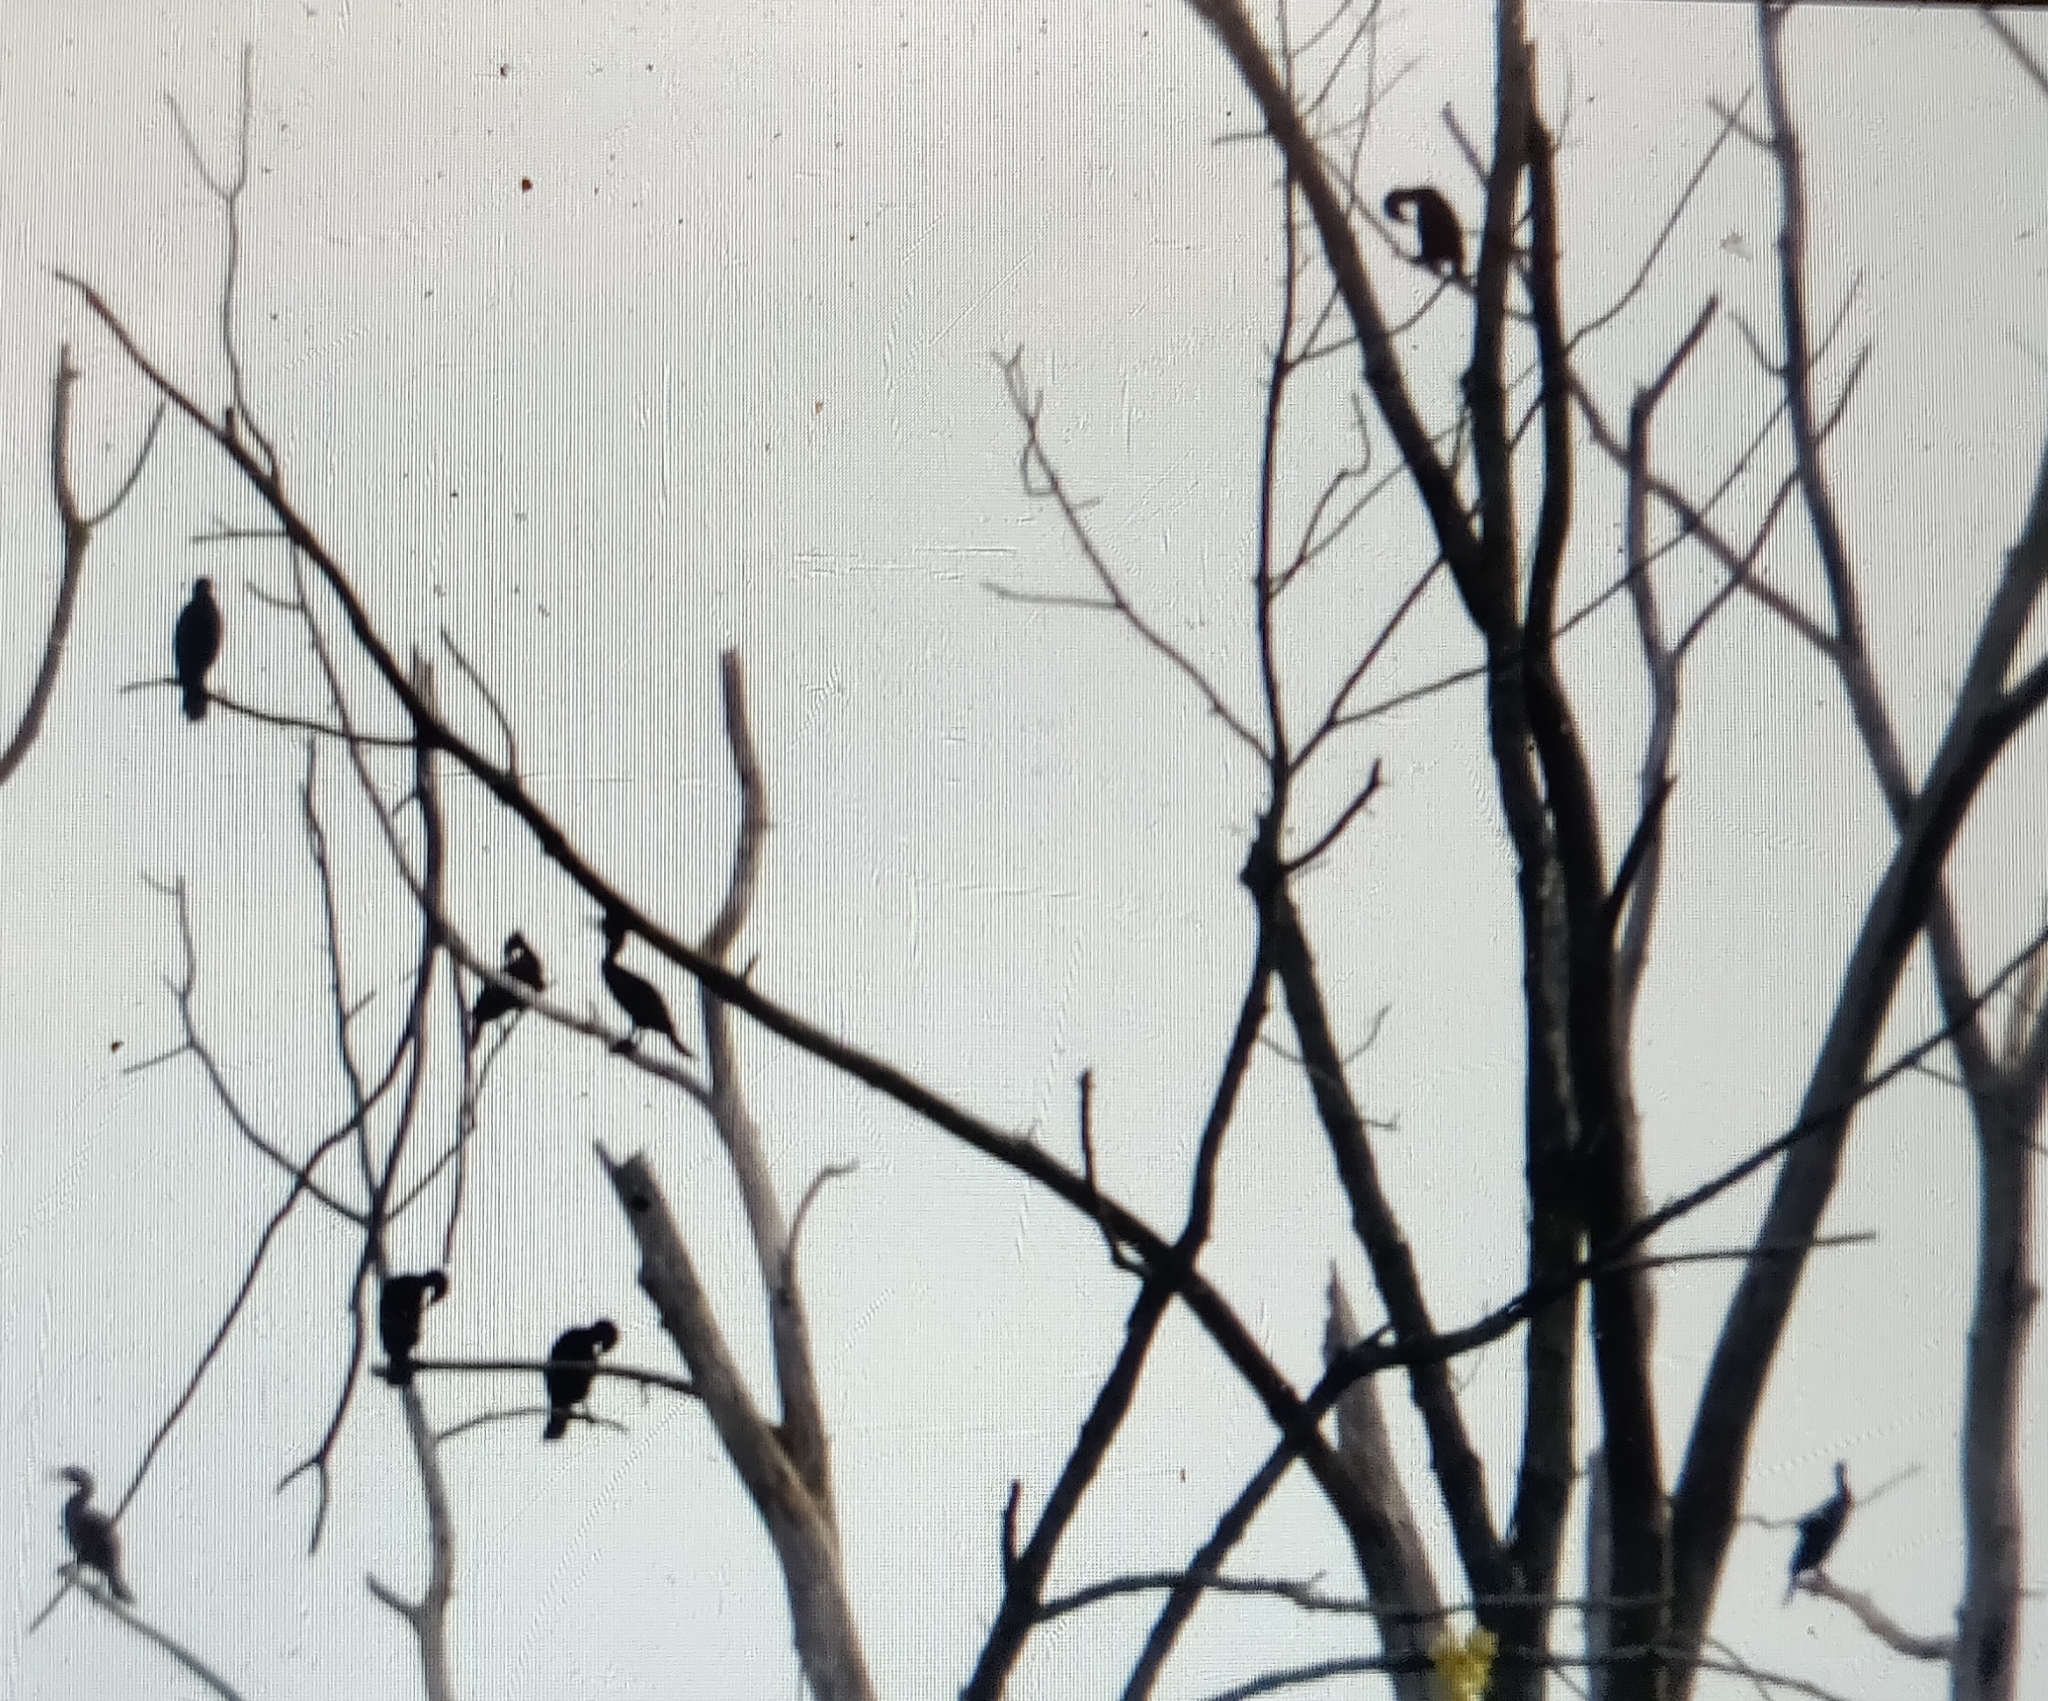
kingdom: Animalia
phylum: Chordata
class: Aves
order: Suliformes
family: Phalacrocoracidae
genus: Phalacrocorax
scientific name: Phalacrocorax auritus
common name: Double-crested cormorant
